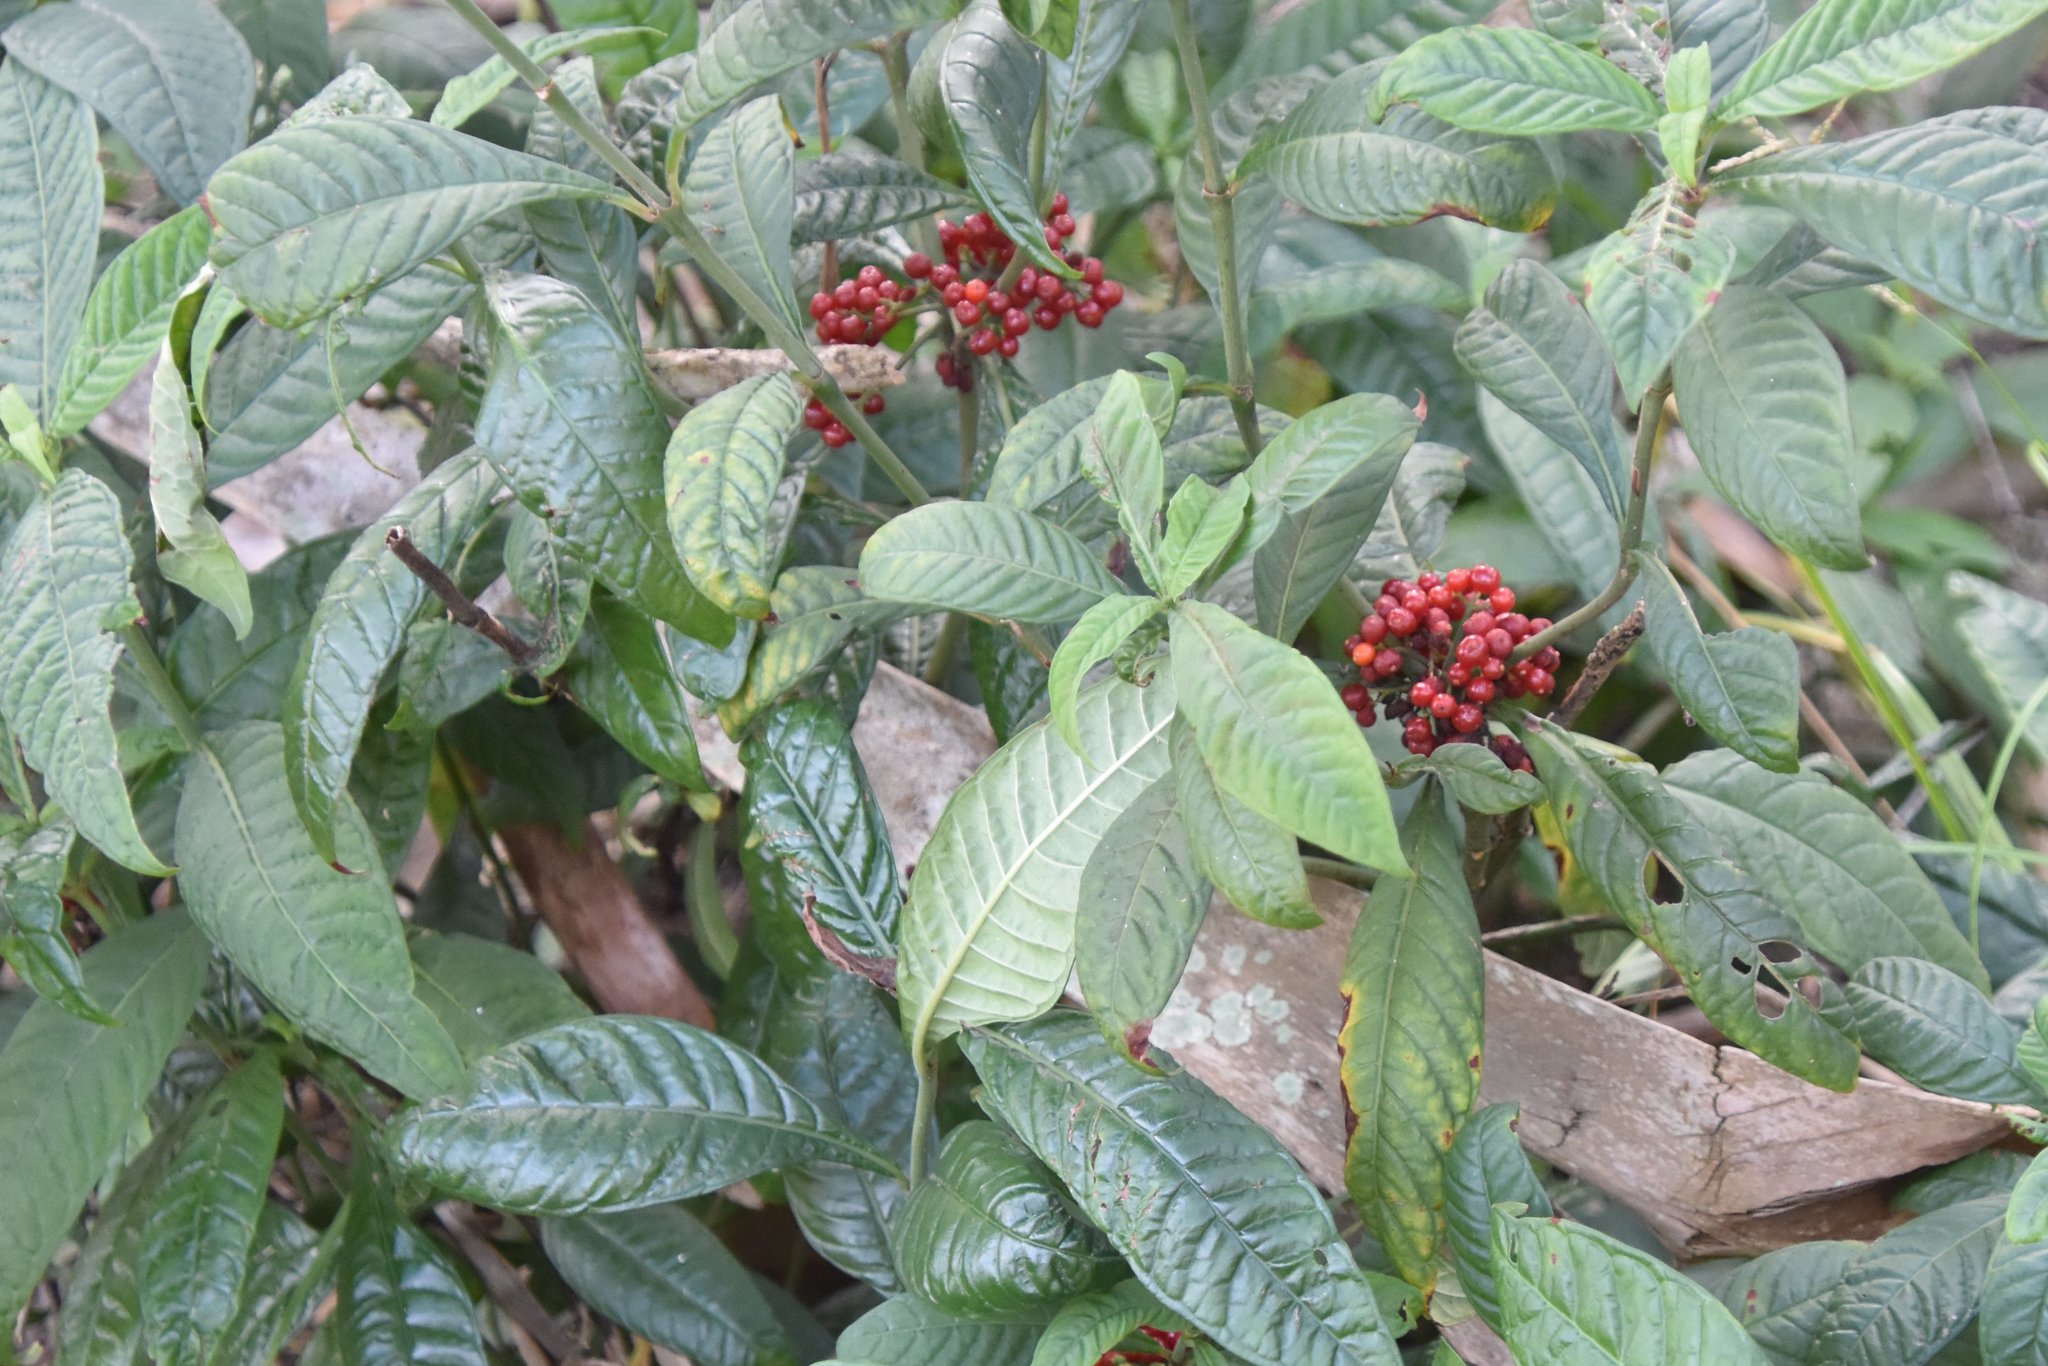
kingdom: Plantae
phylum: Tracheophyta
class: Magnoliopsida
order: Gentianales
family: Rubiaceae
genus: Psychotria
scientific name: Psychotria tenuifolia
